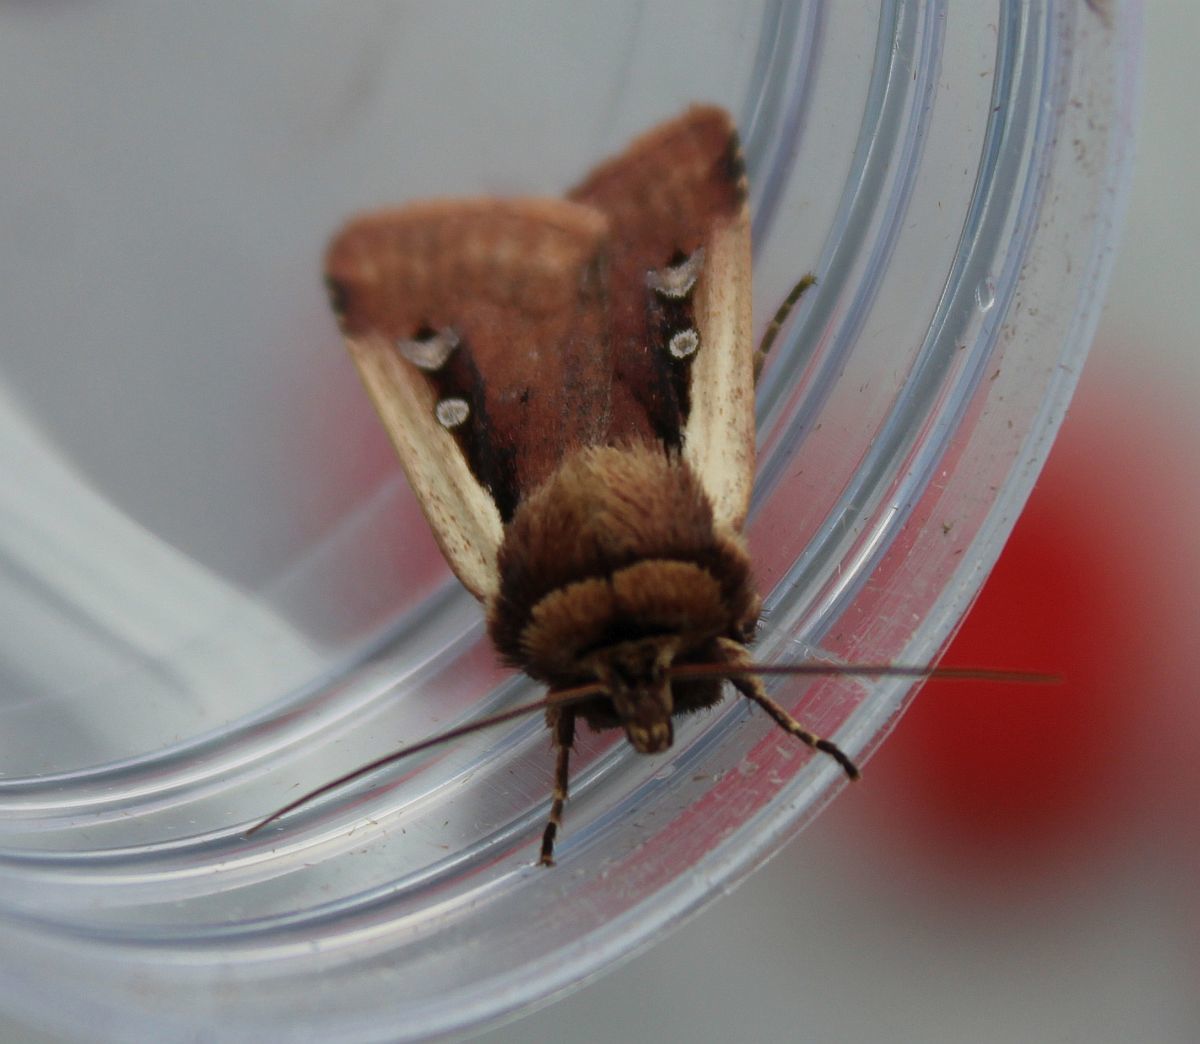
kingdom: Animalia
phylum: Arthropoda
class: Insecta
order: Lepidoptera
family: Noctuidae
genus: Ochropleura
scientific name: Ochropleura plecta
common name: Flame shoulder
